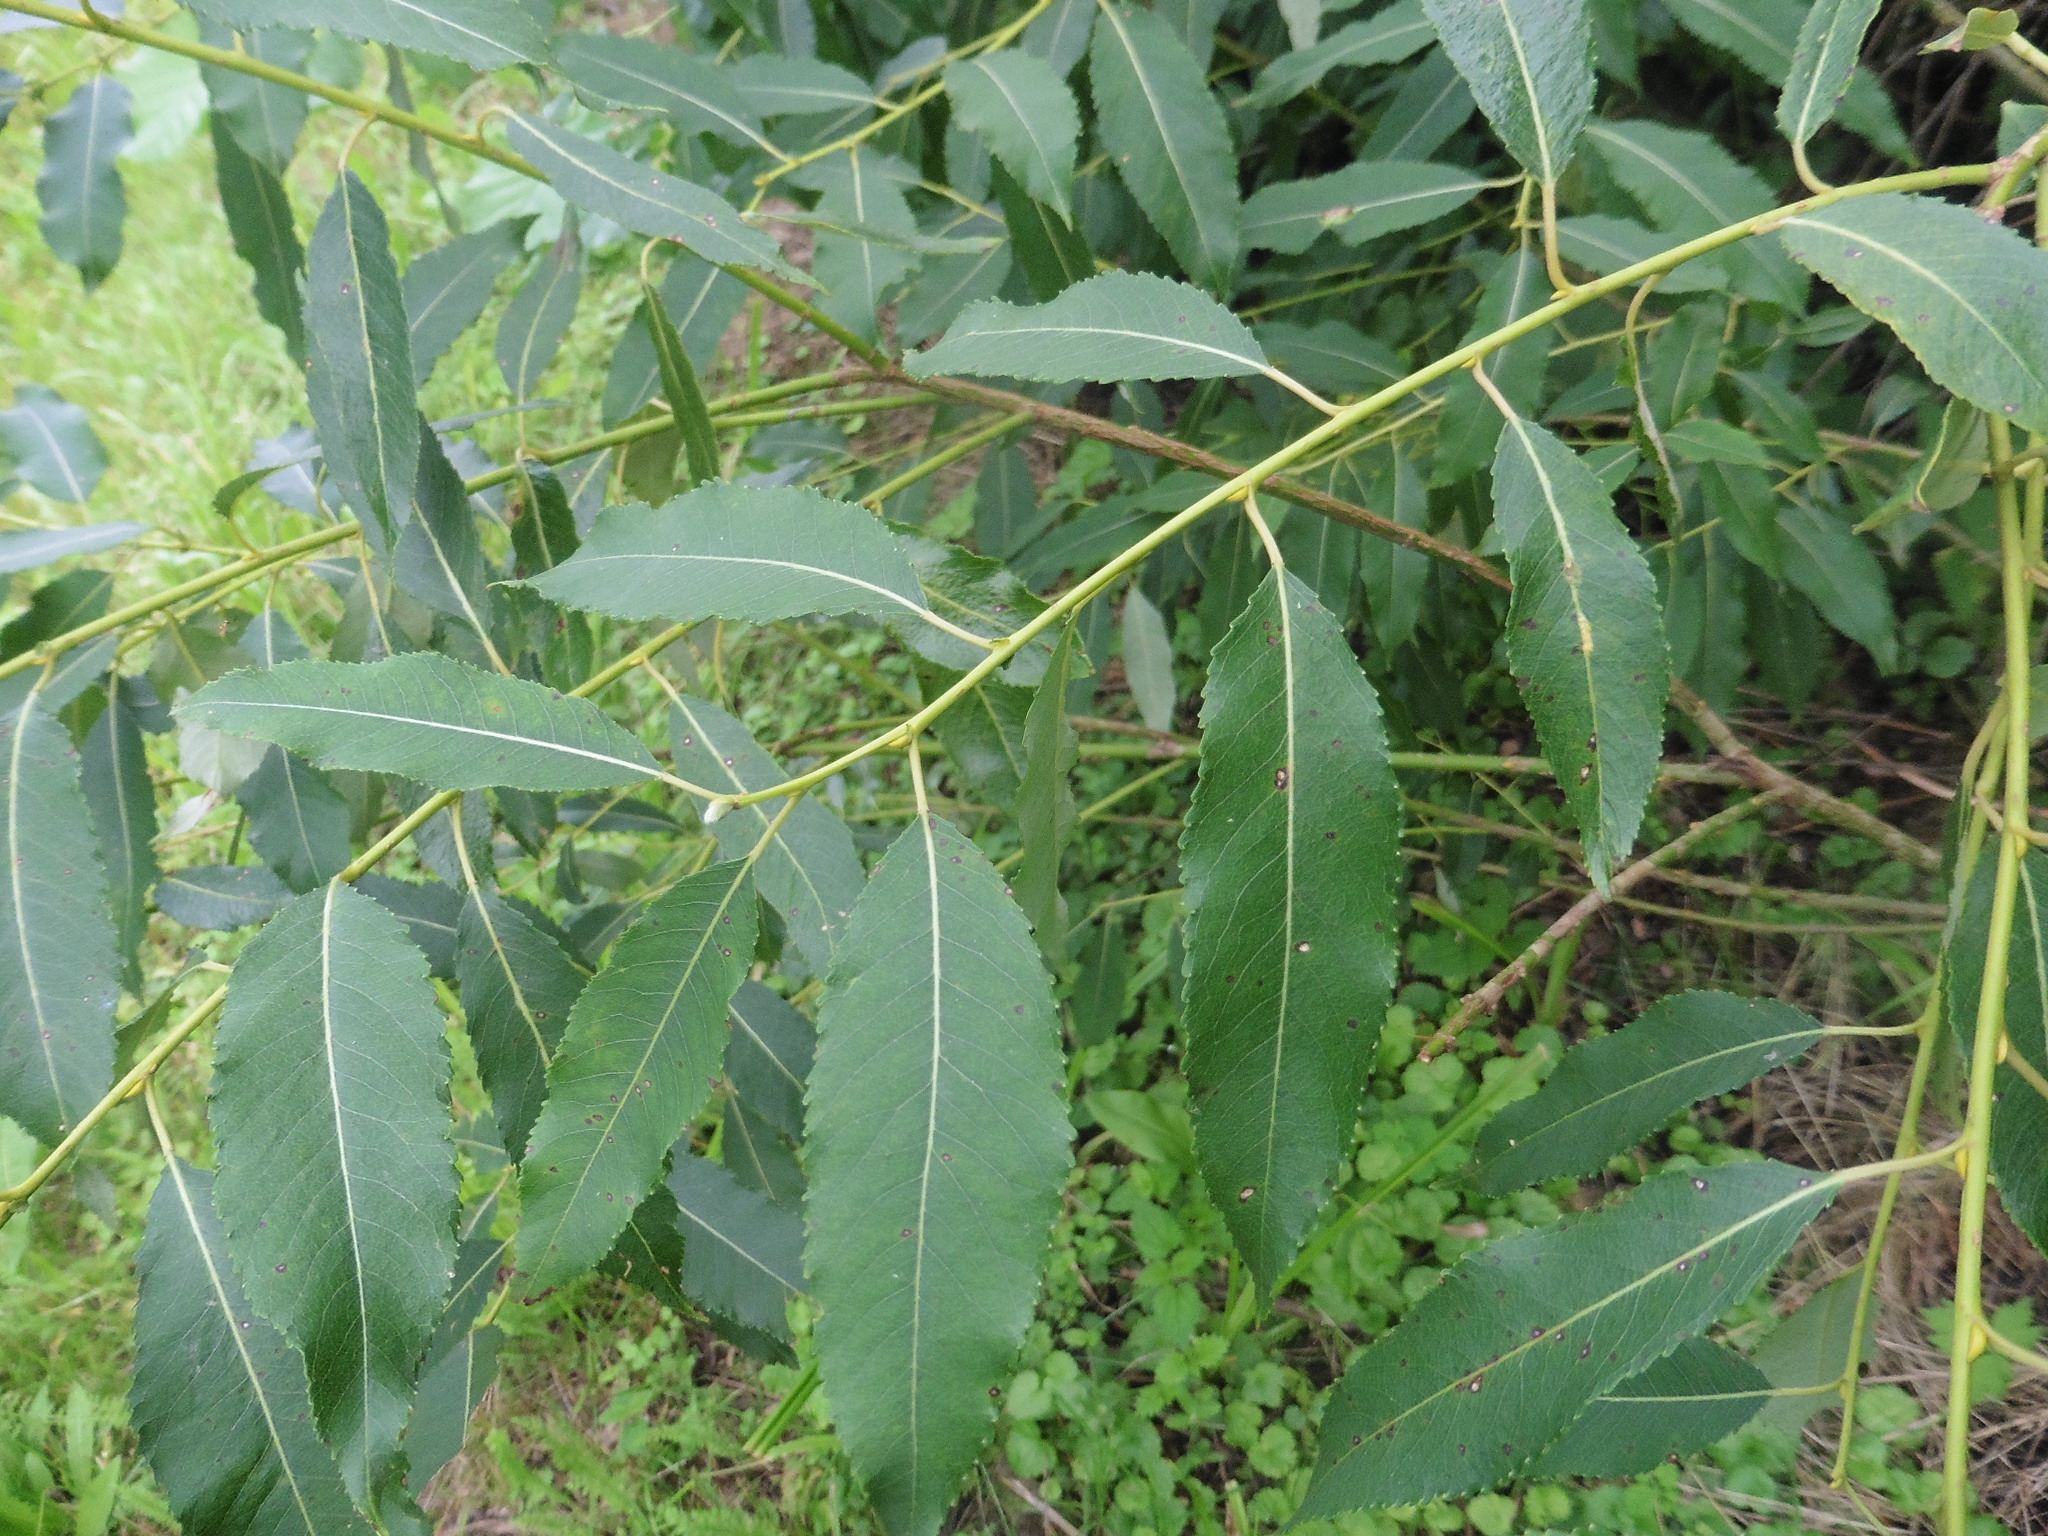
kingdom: Plantae
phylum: Tracheophyta
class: Magnoliopsida
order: Malpighiales
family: Salicaceae
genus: Salix
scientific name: Salix triandra
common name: Almond willow
